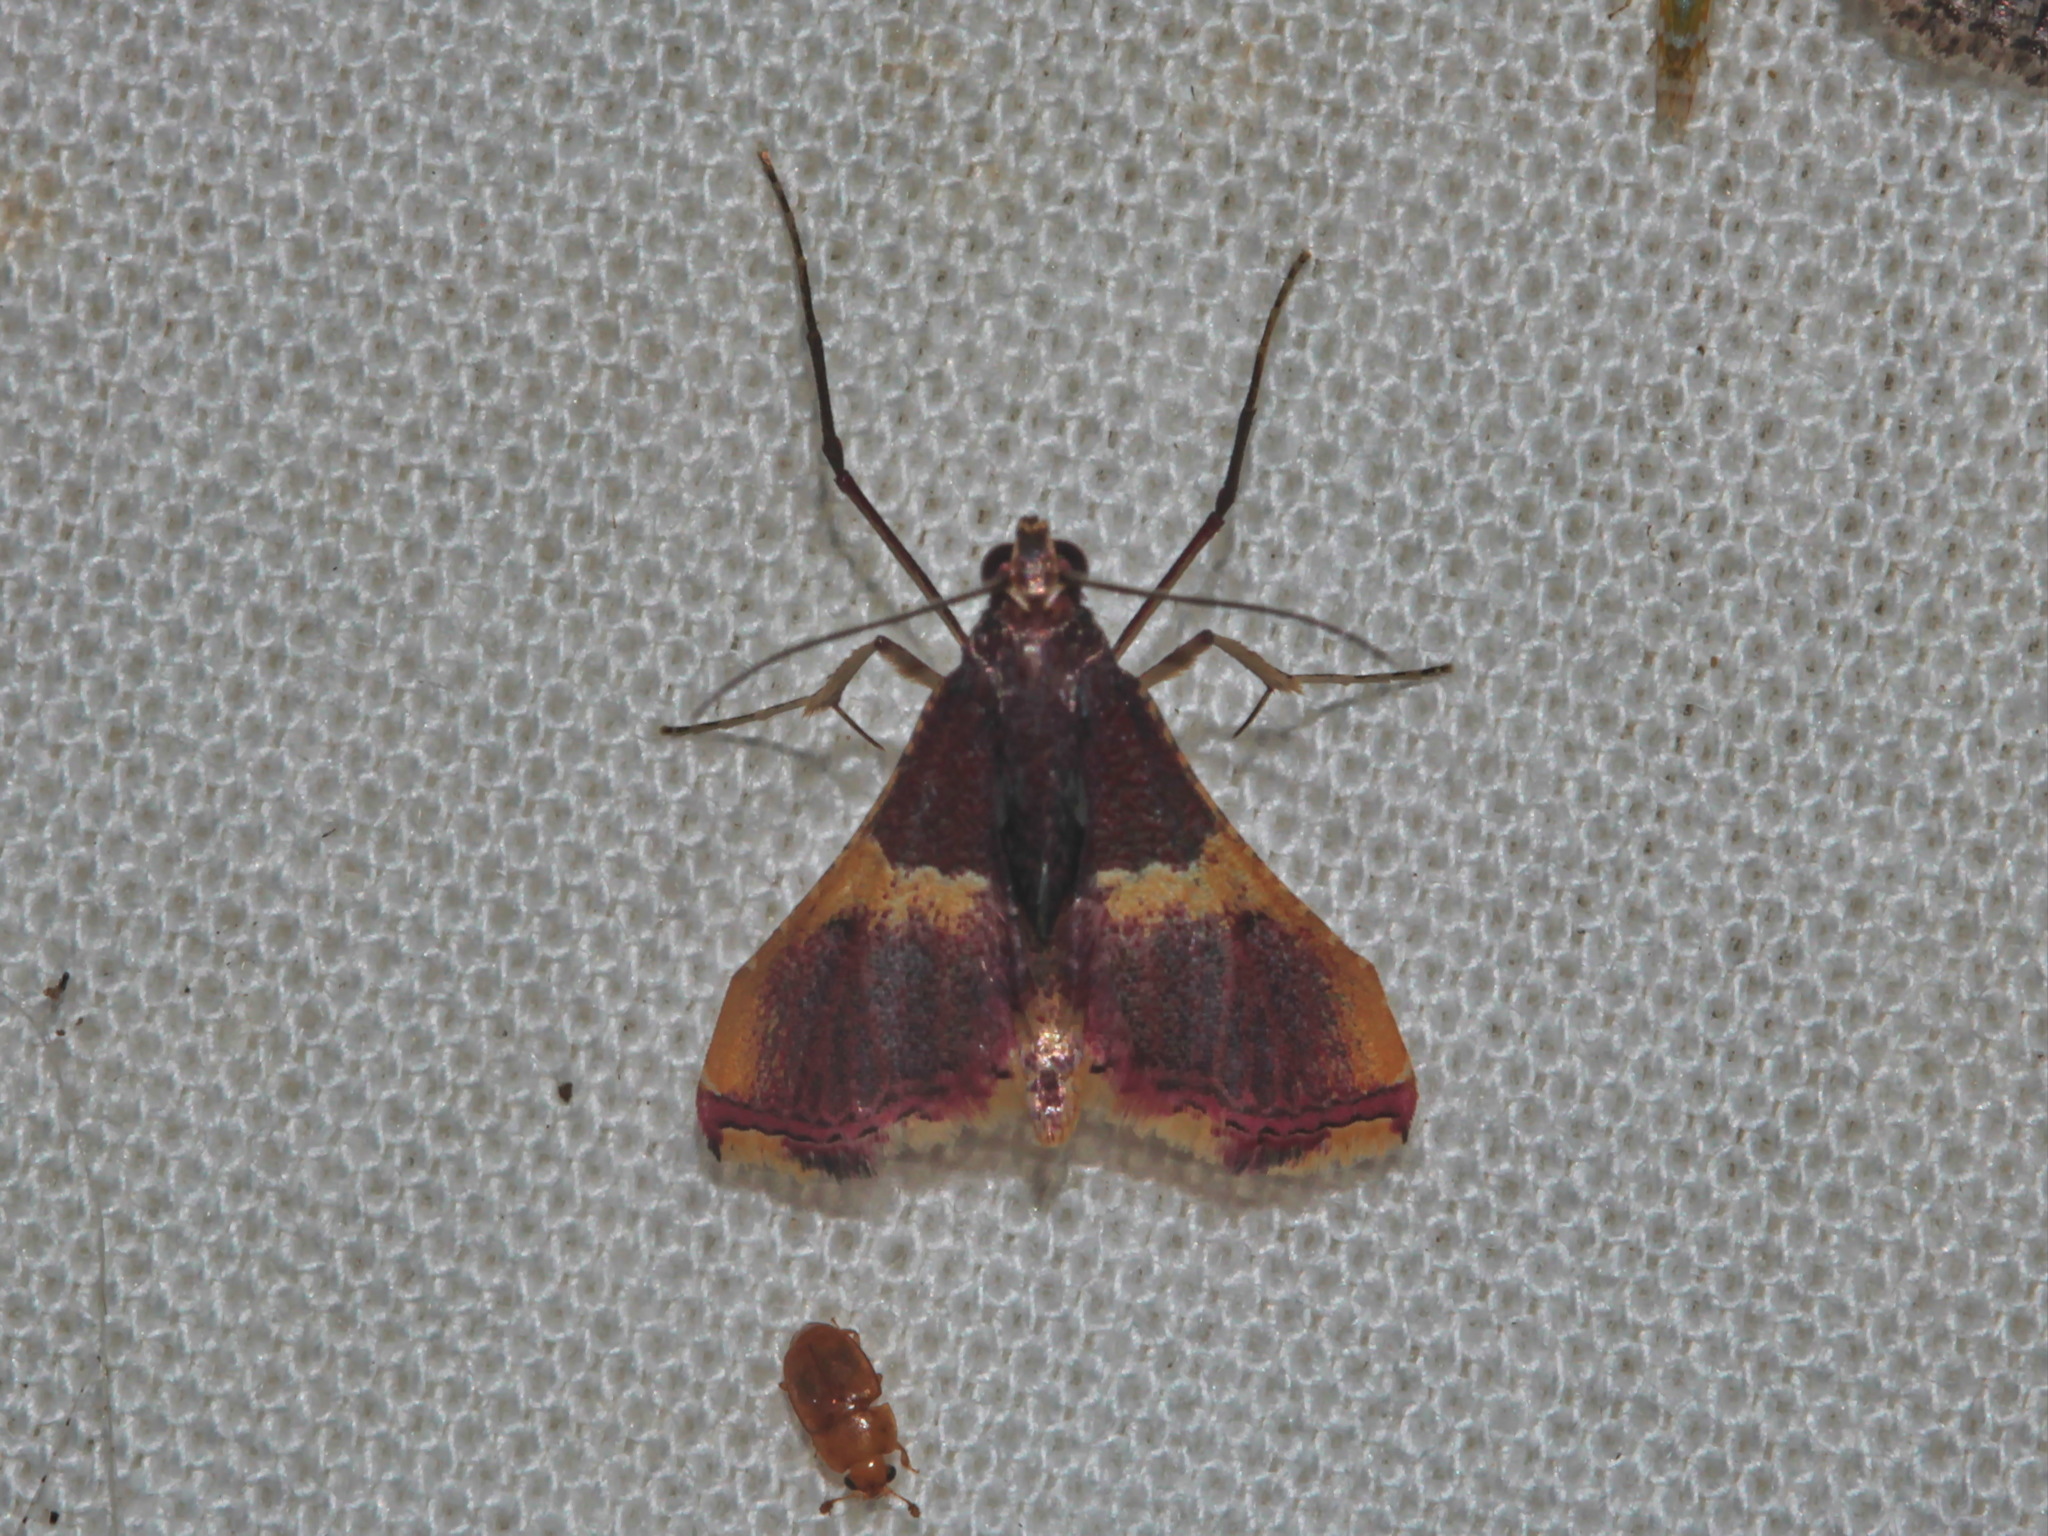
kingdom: Animalia
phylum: Arthropoda
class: Insecta
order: Lepidoptera
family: Pyralidae
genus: Endotricha
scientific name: Endotricha mesenterialis
